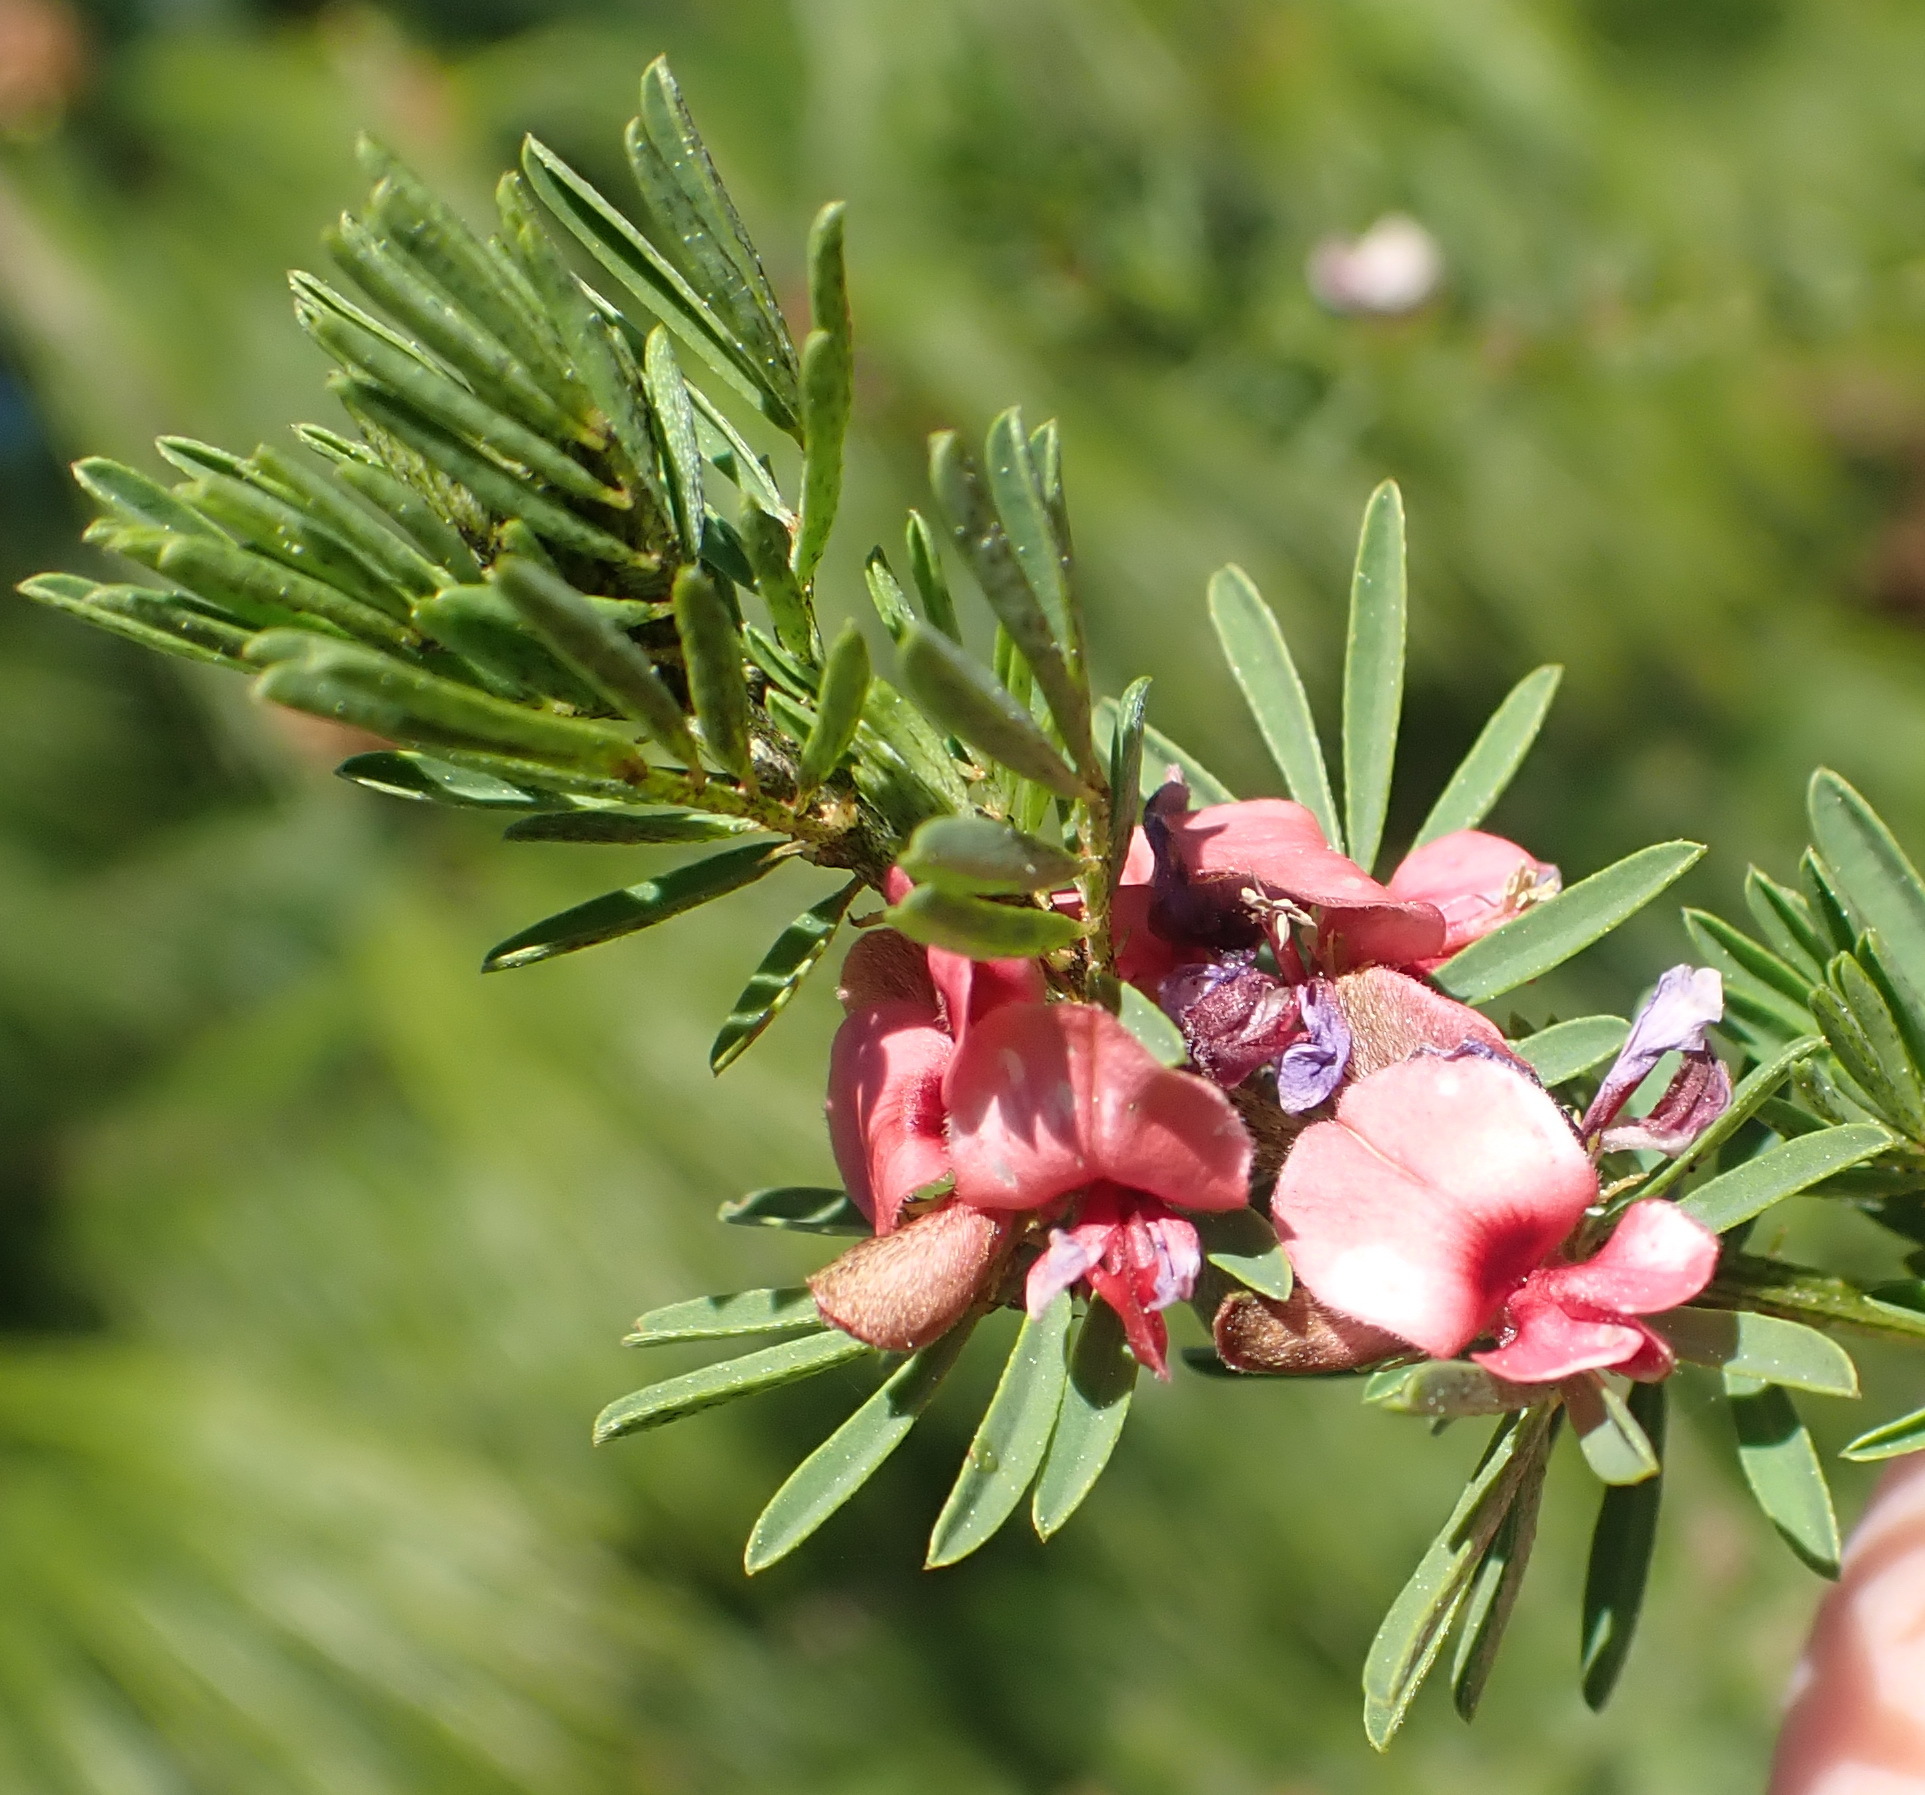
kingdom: Plantae
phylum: Tracheophyta
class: Magnoliopsida
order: Fabales
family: Fabaceae
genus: Indigofera
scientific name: Indigofera stricta
